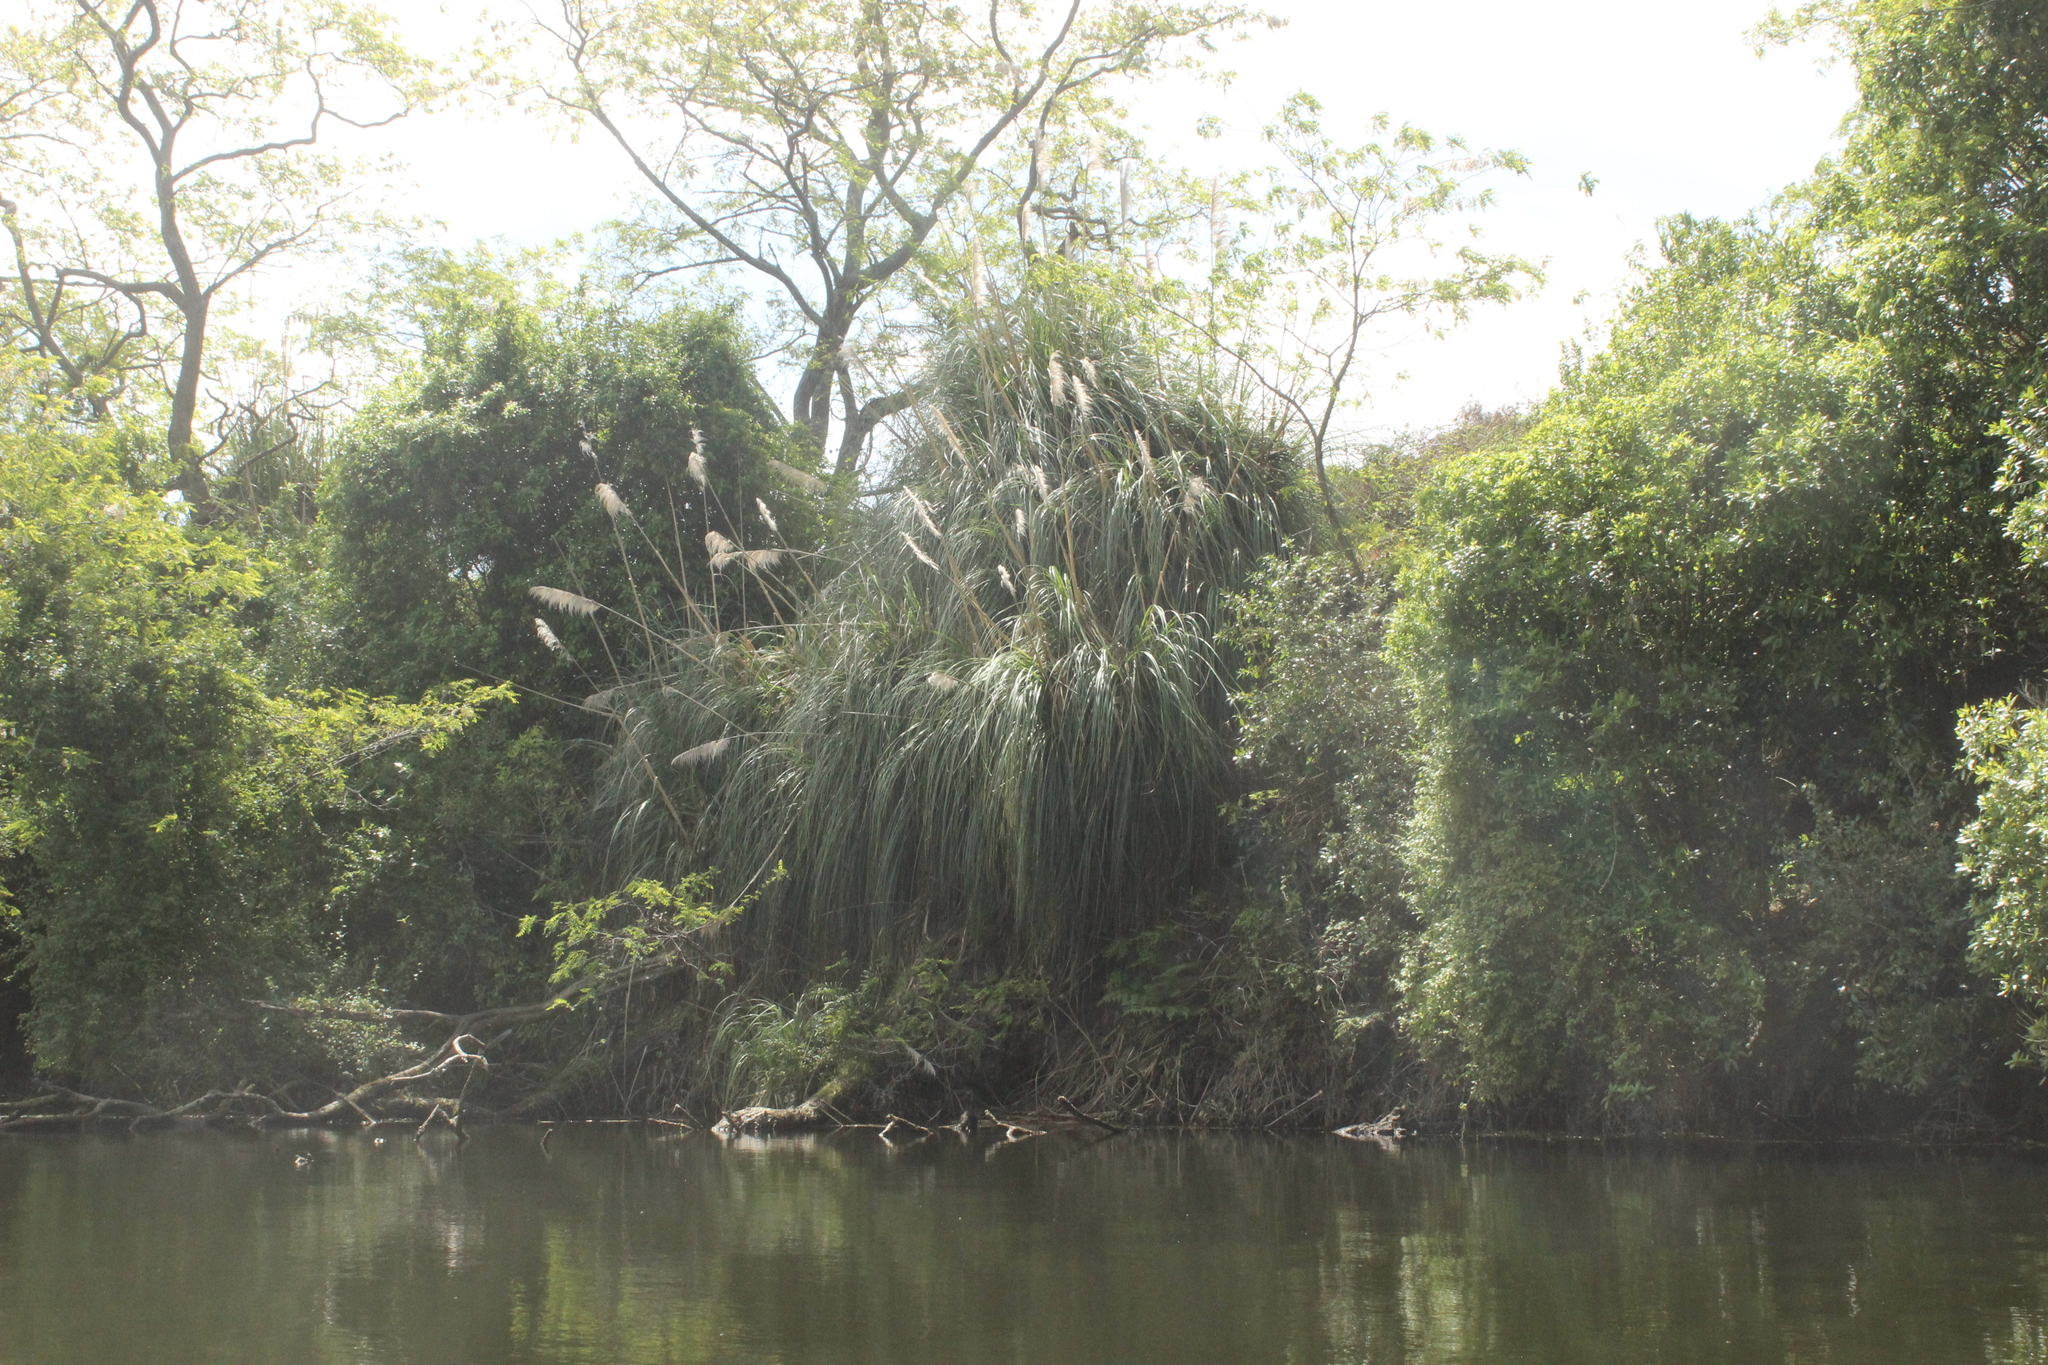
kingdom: Plantae
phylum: Tracheophyta
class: Liliopsida
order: Poales
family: Poaceae
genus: Cortaderia
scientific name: Cortaderia selloana
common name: Uruguayan pampas grass
